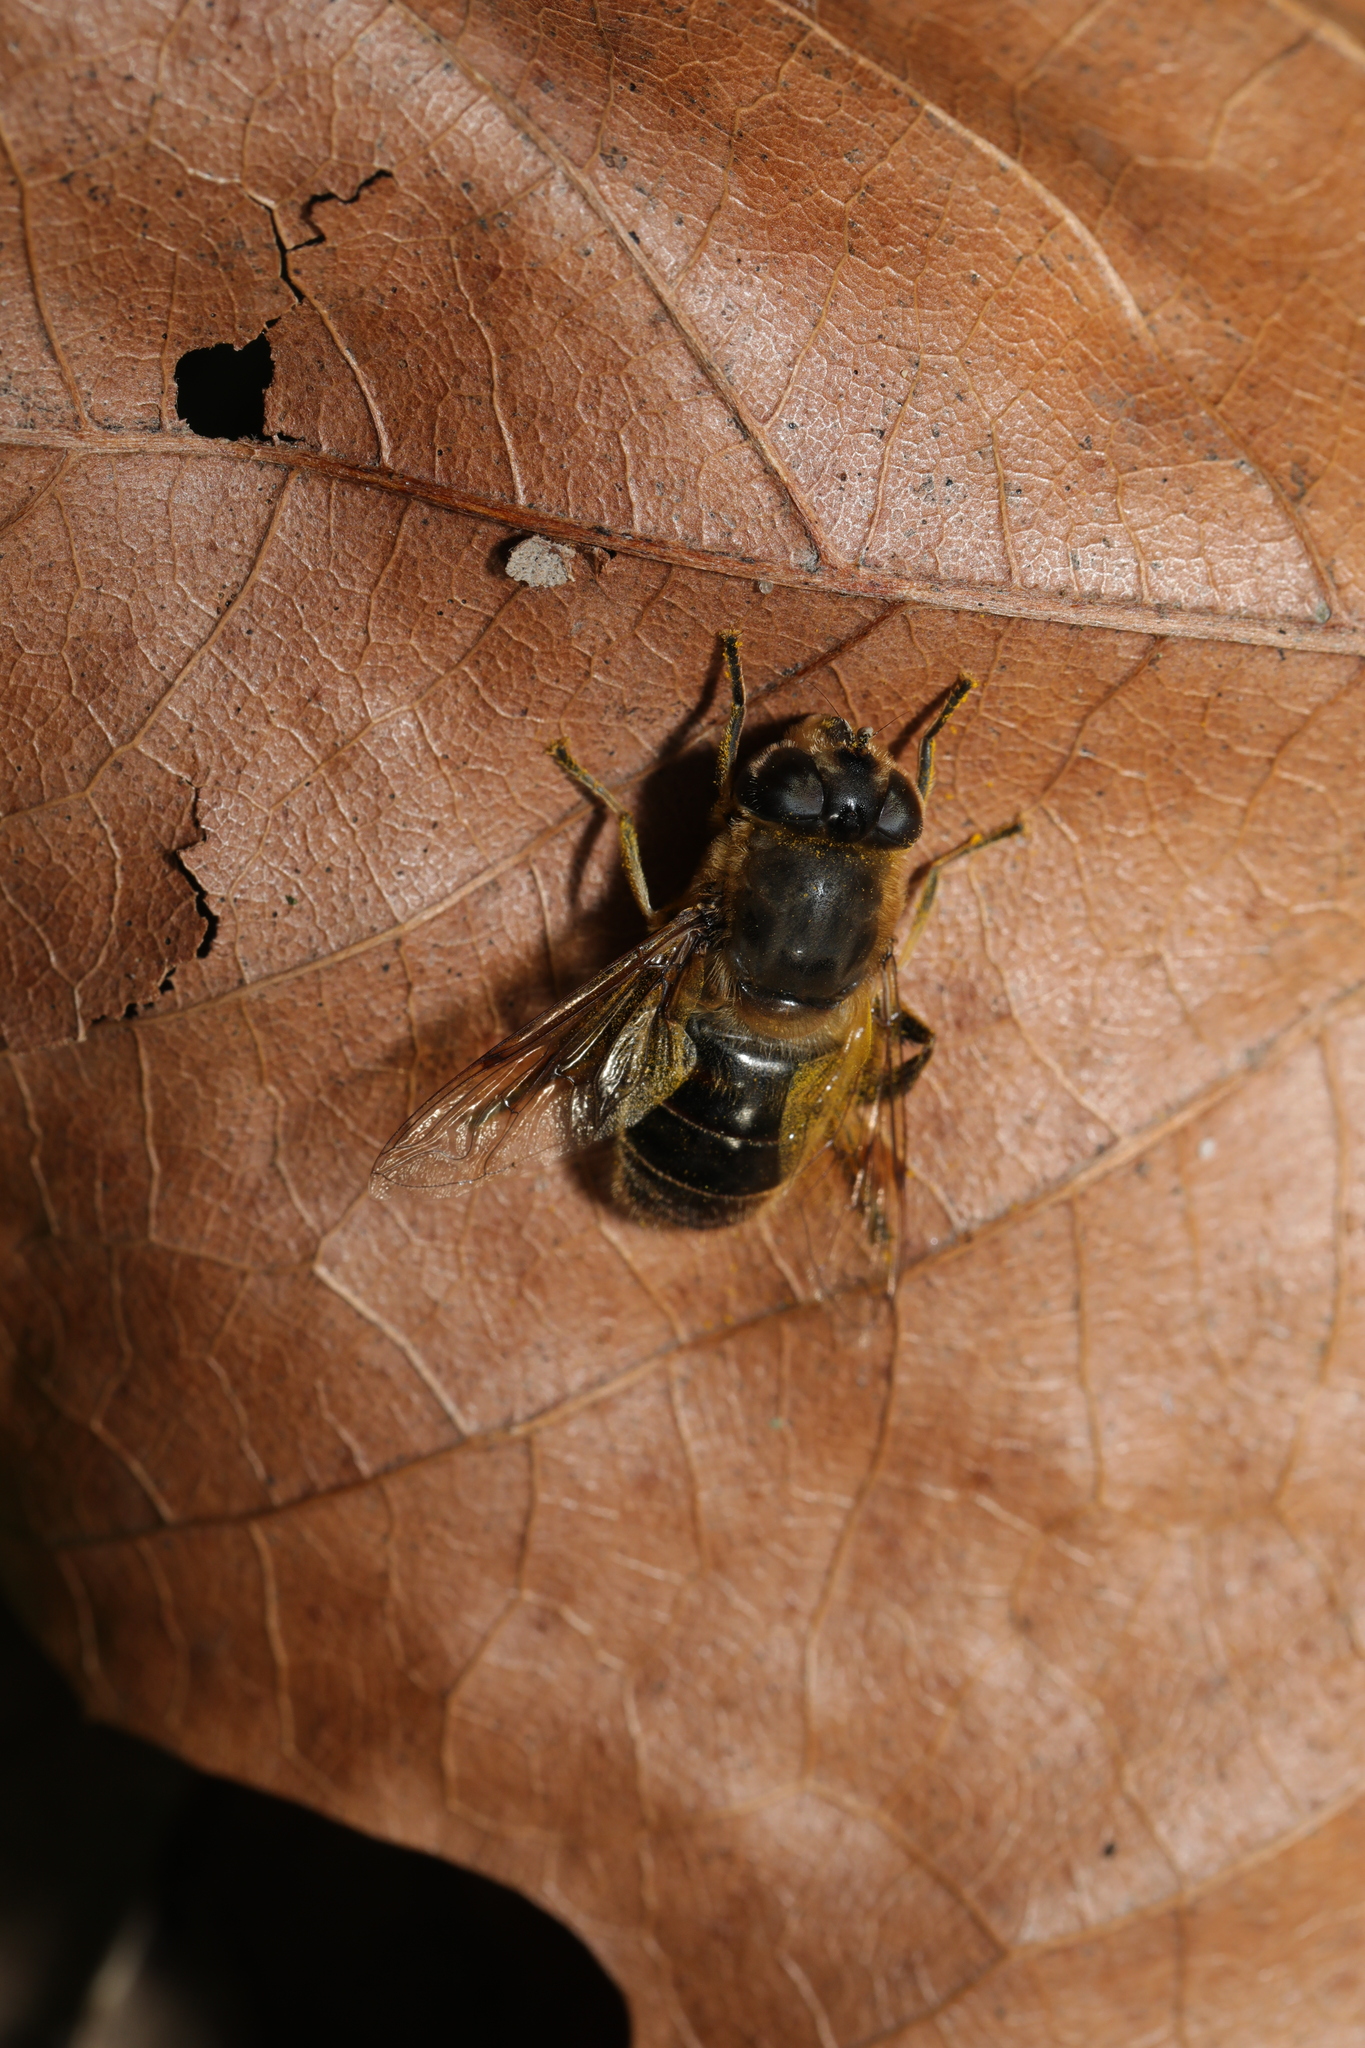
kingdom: Animalia
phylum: Arthropoda
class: Insecta
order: Diptera
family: Syrphidae
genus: Eristalis
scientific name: Eristalis tenax
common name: Drone fly
